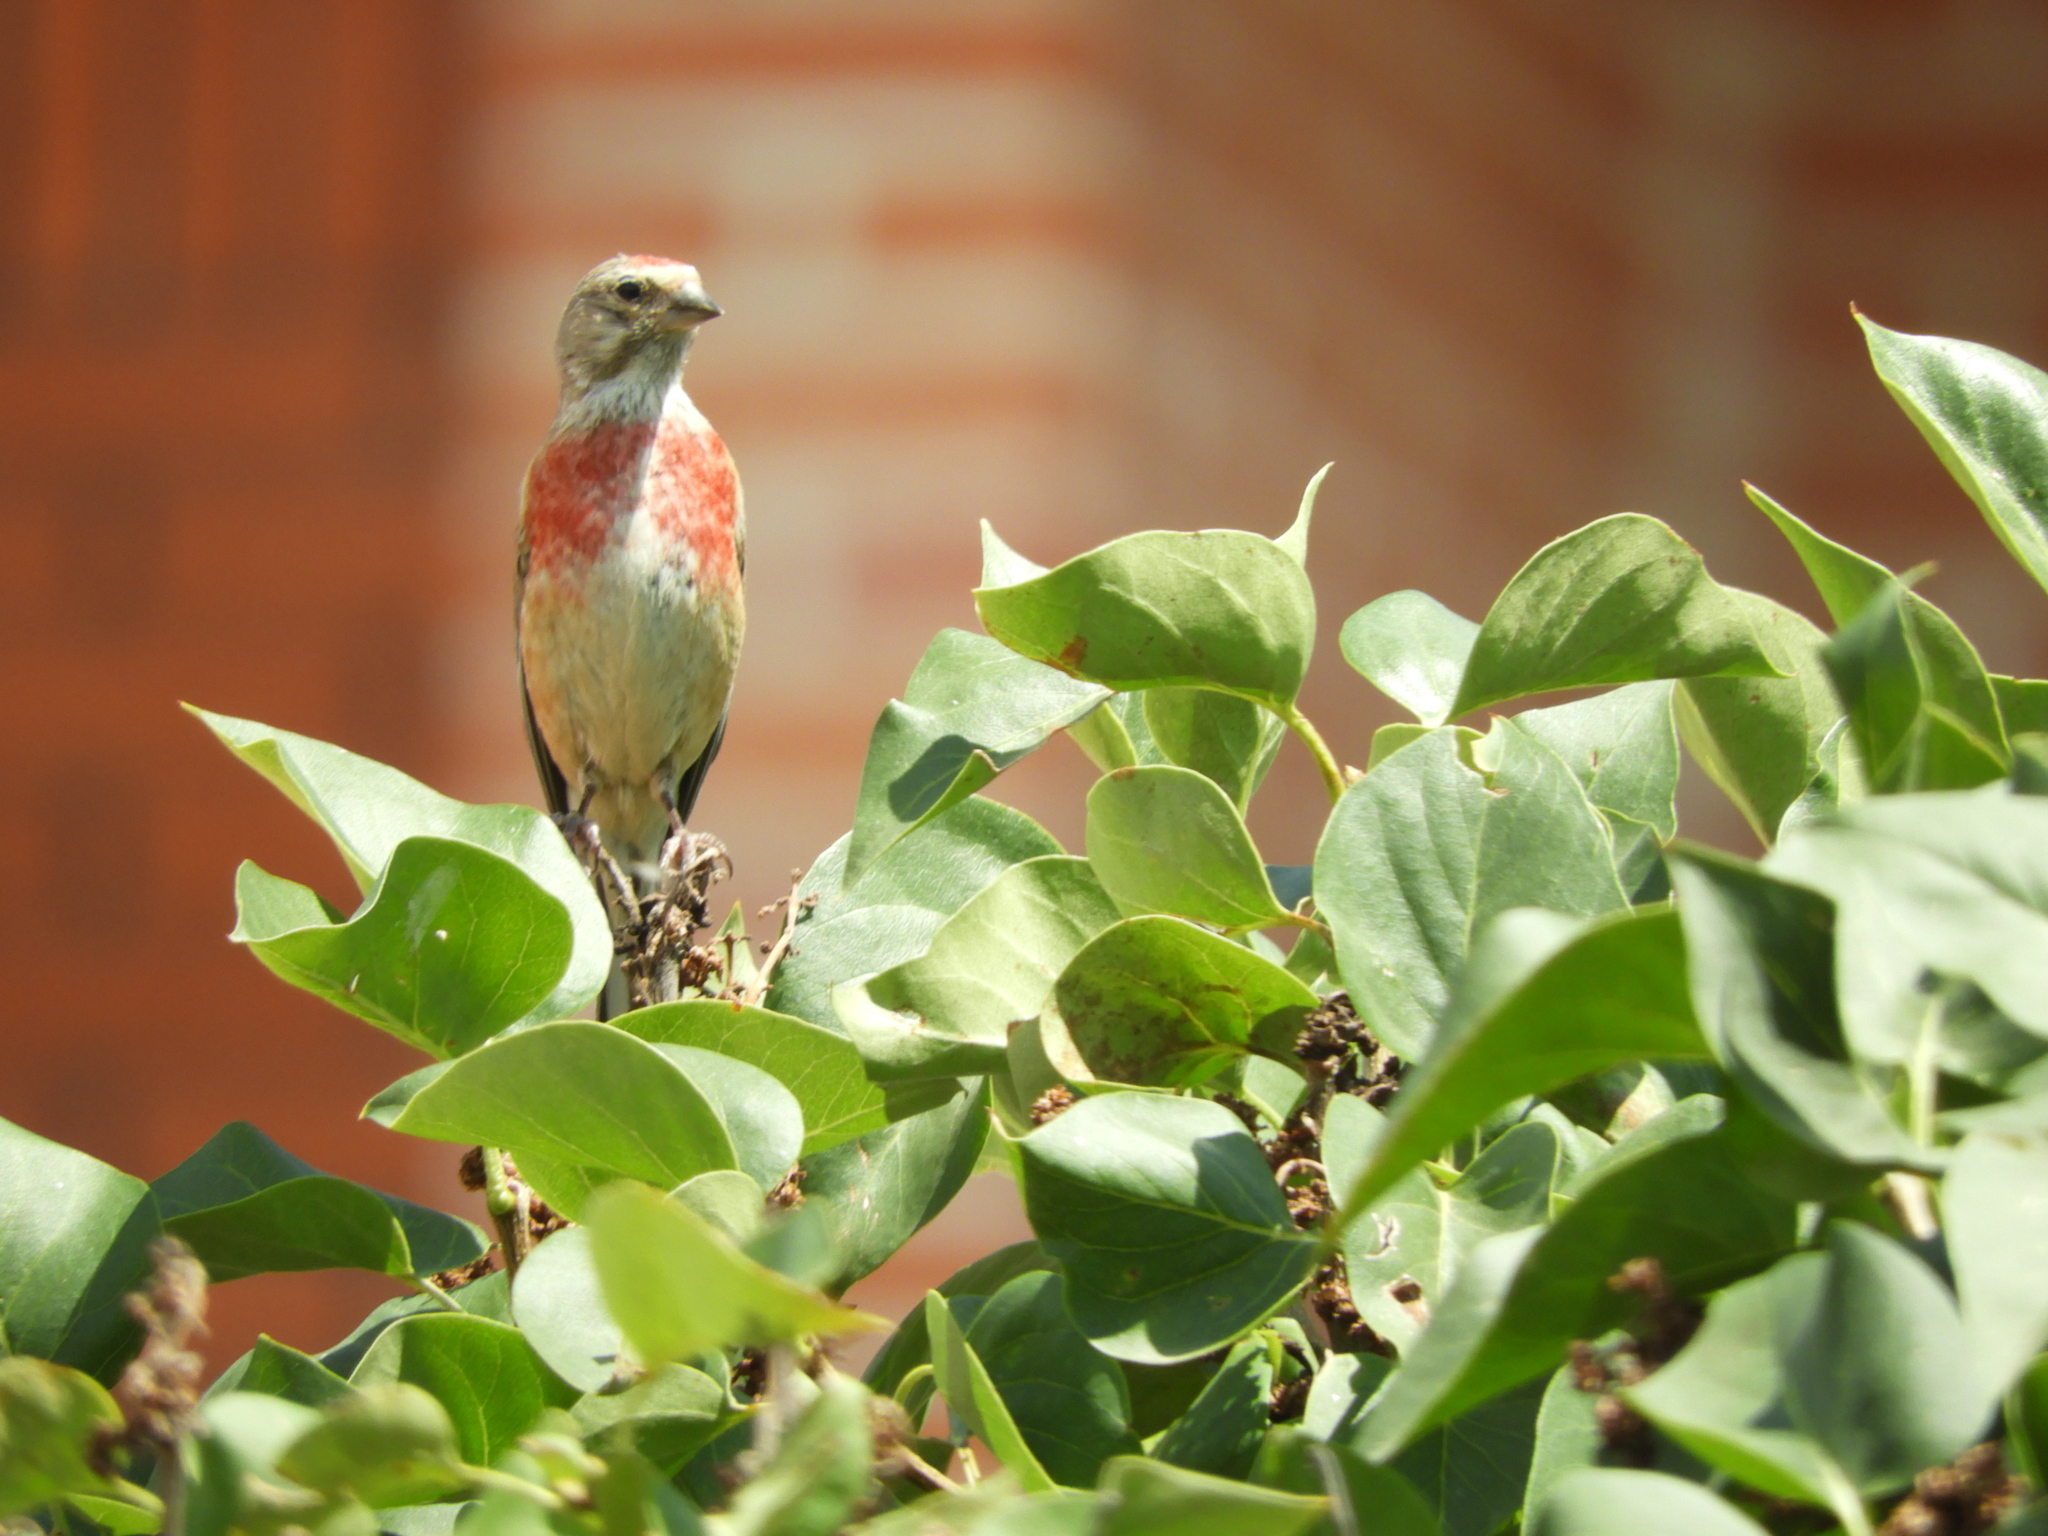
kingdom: Animalia
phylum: Chordata
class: Aves
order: Passeriformes
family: Fringillidae
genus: Linaria
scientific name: Linaria cannabina
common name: Common linnet
